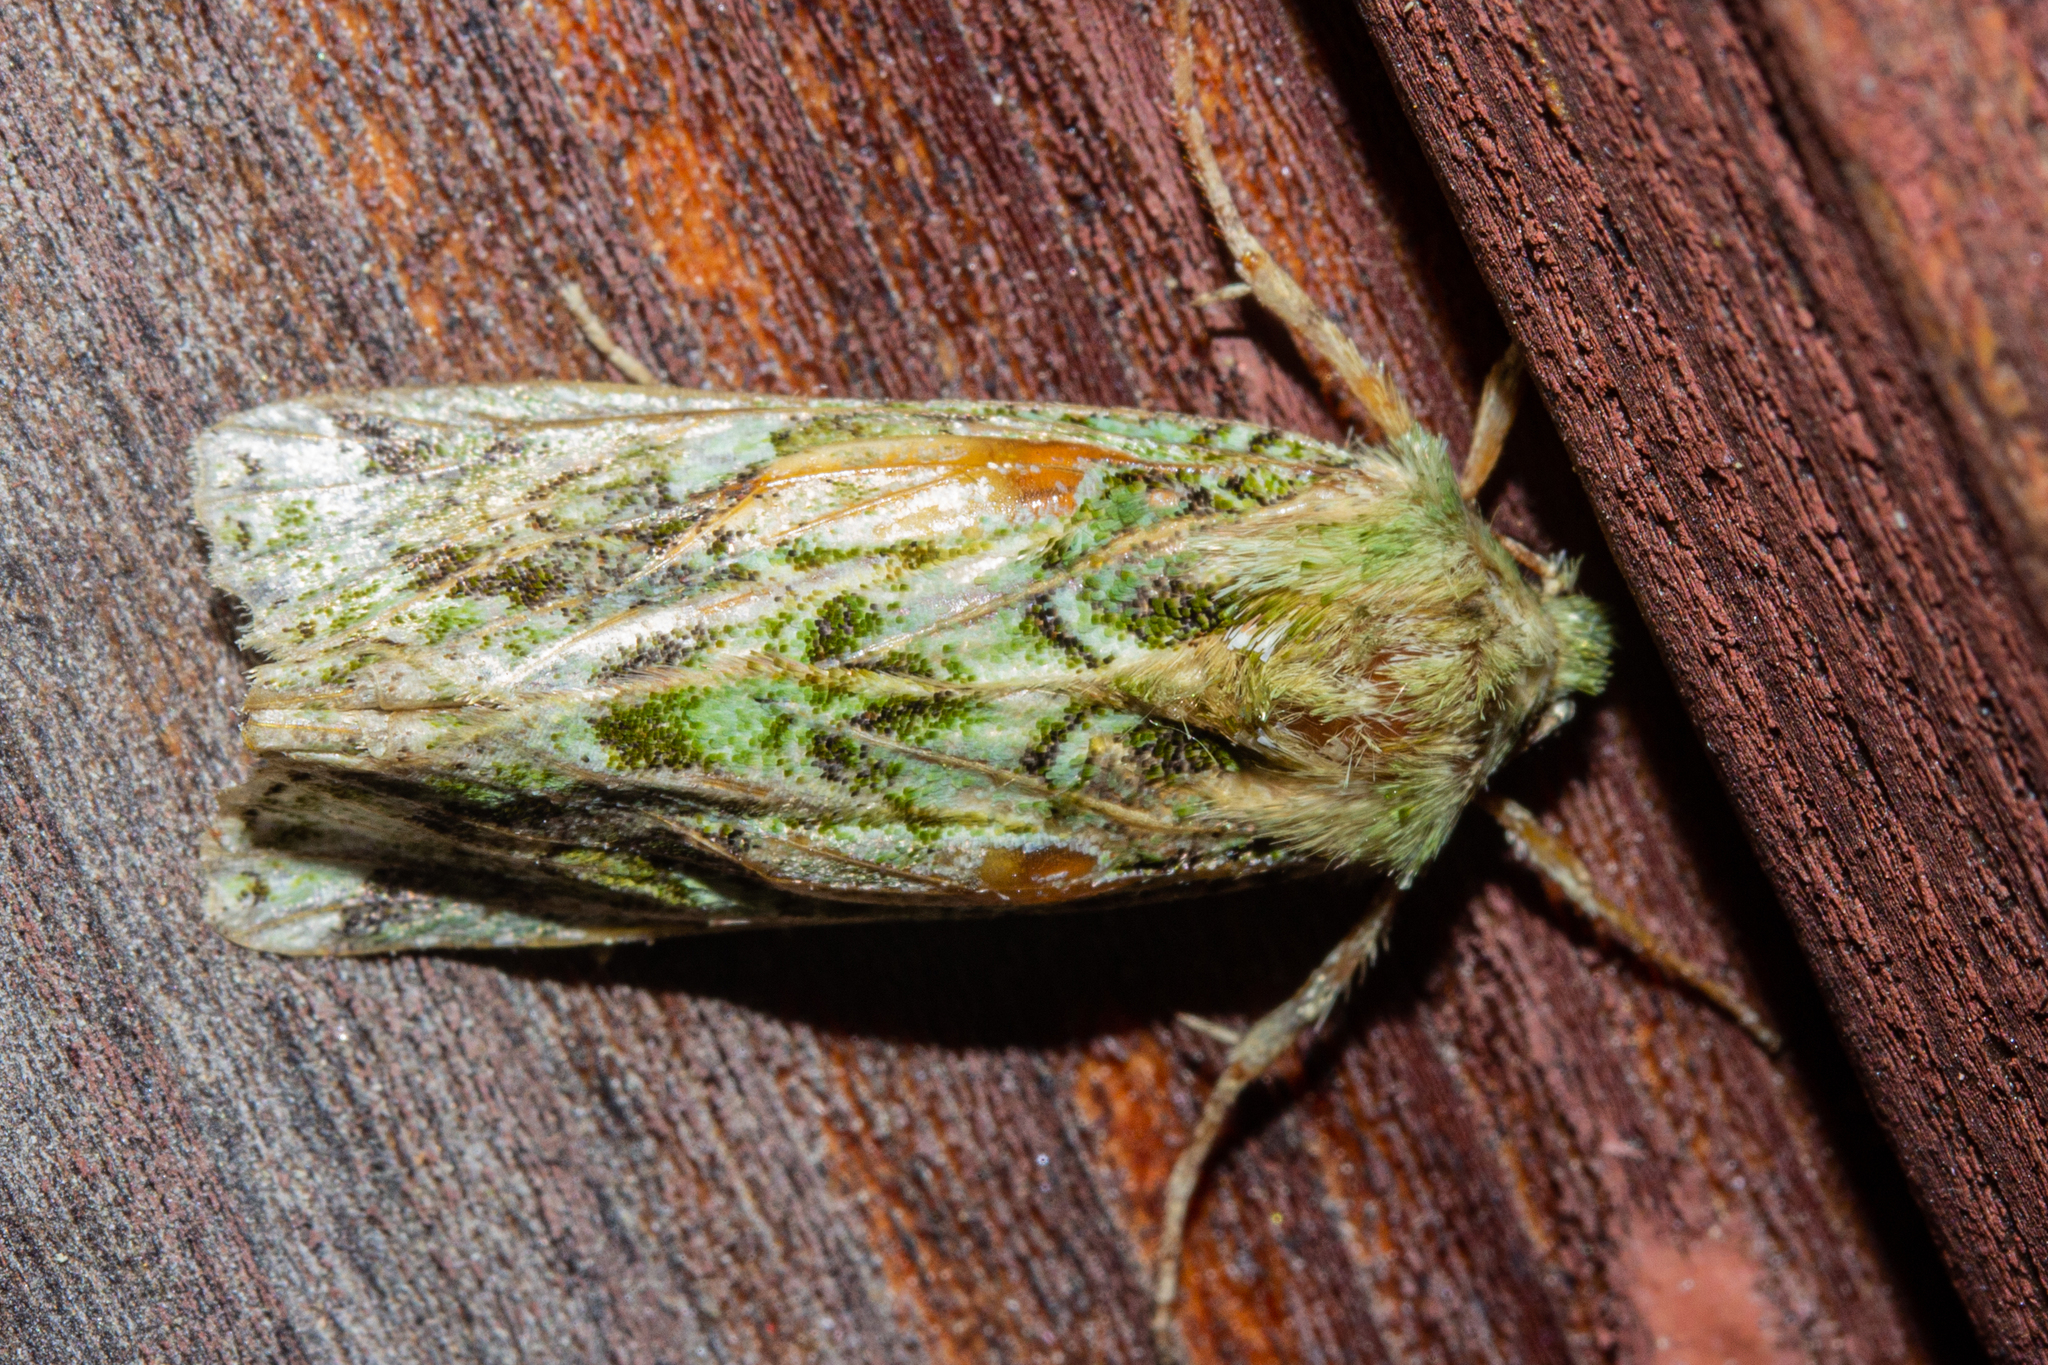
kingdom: Animalia
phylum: Arthropoda
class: Insecta
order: Lepidoptera
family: Noctuidae
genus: Feredayia
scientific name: Feredayia grammosa
